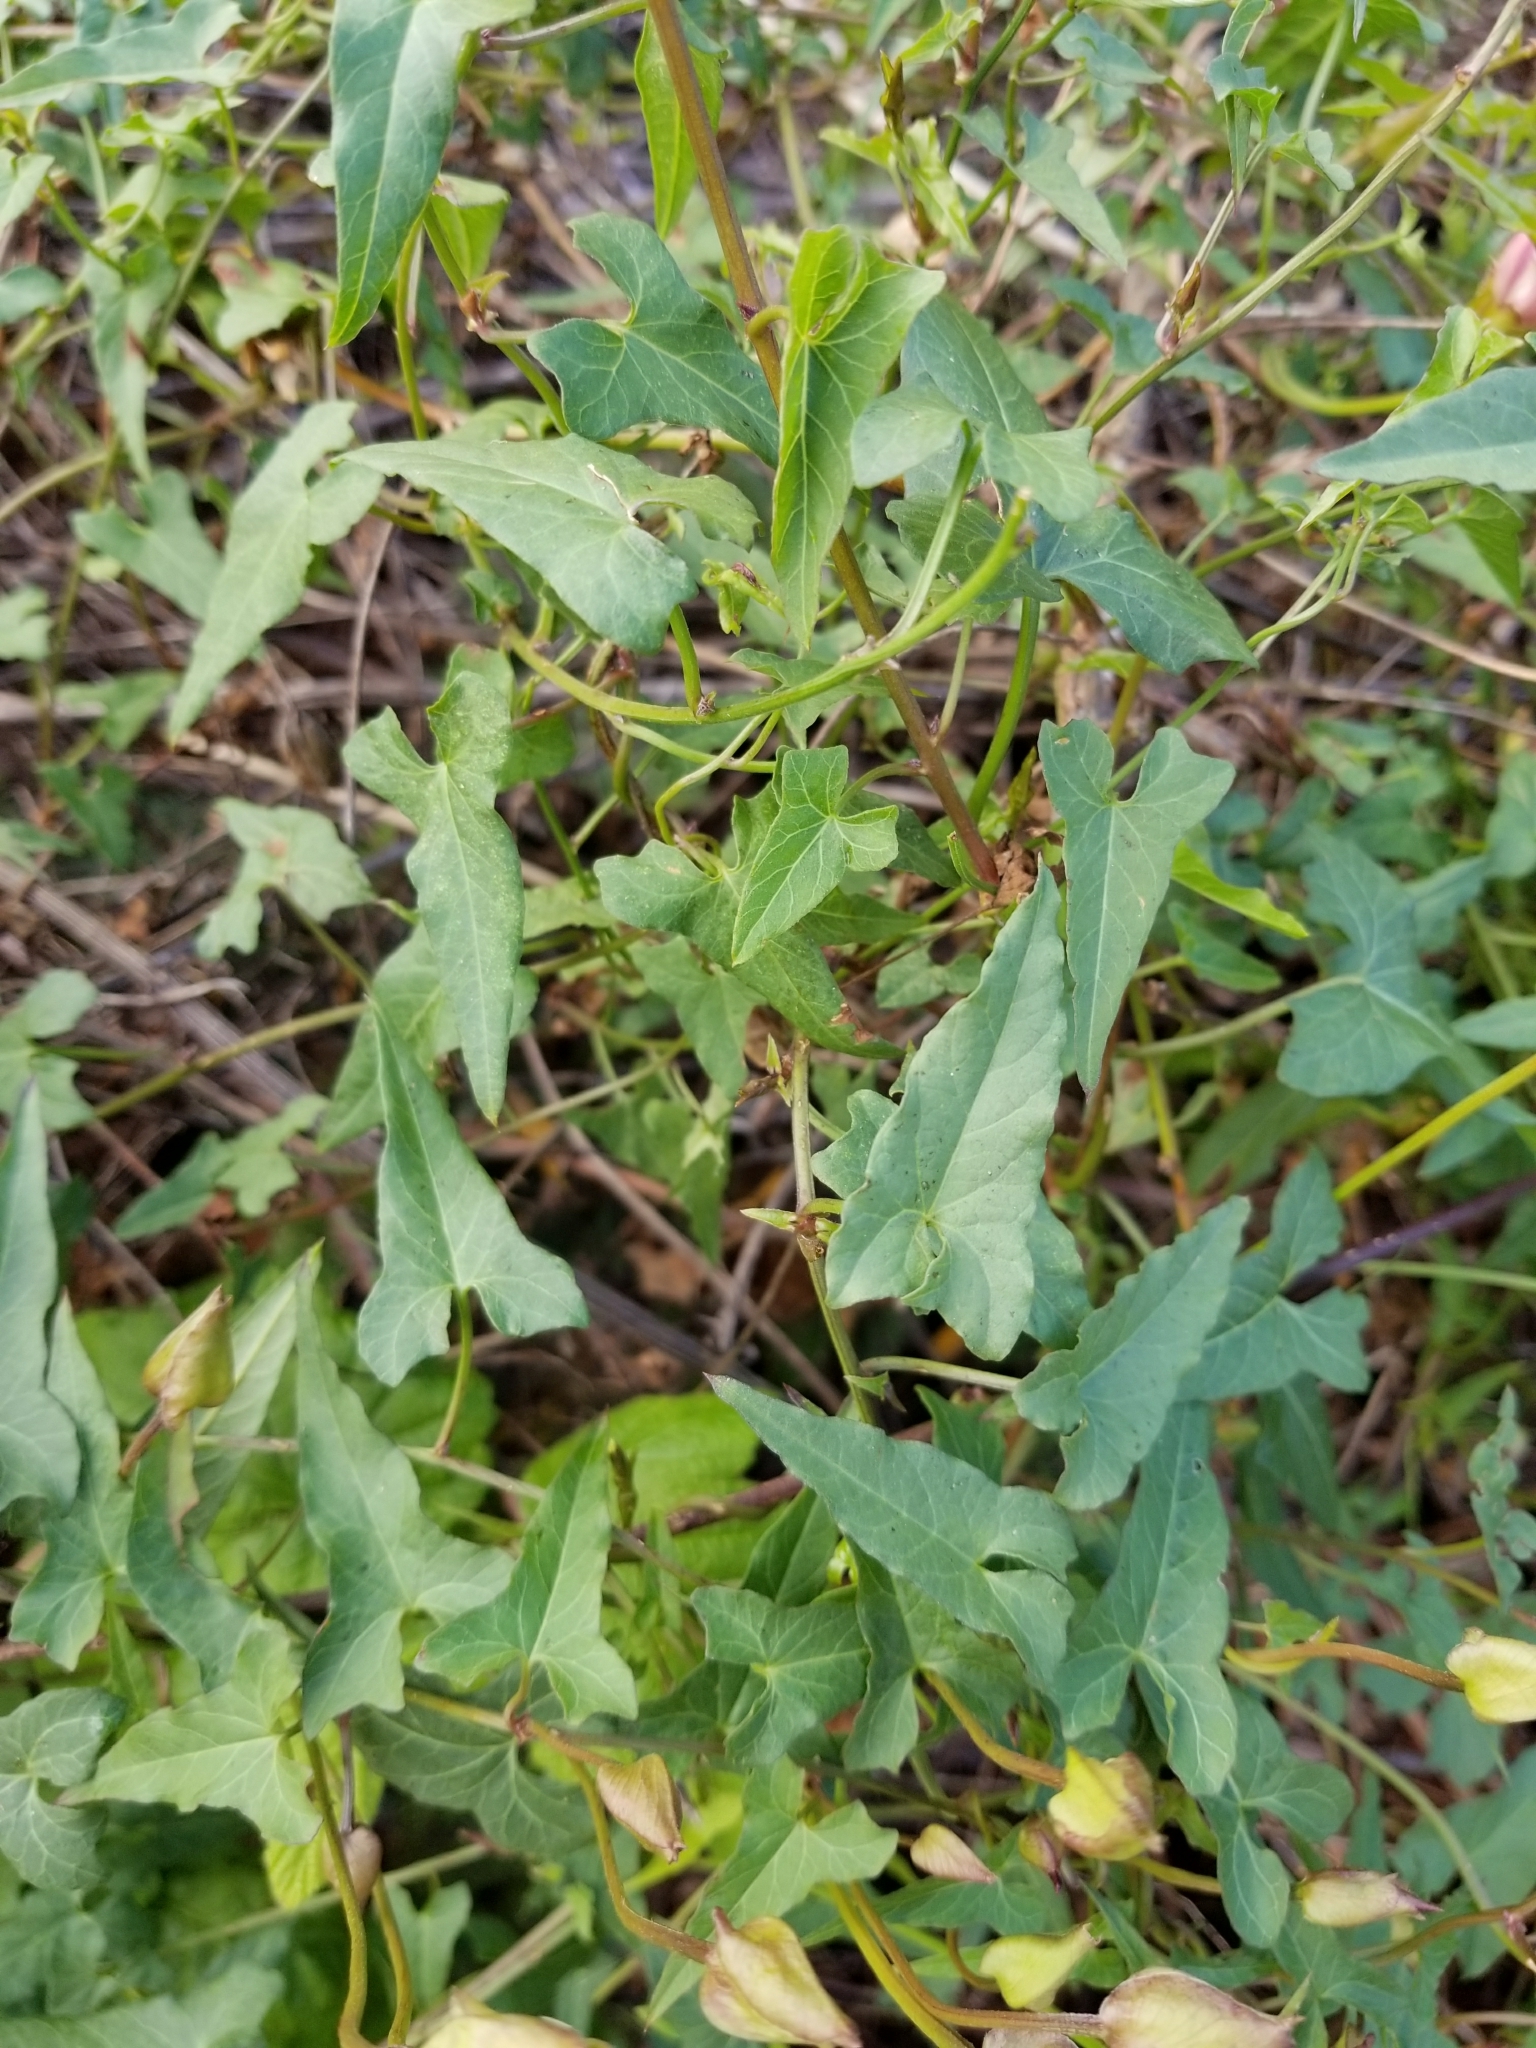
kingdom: Plantae
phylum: Tracheophyta
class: Magnoliopsida
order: Solanales
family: Convolvulaceae
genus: Calystegia
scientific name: Calystegia macrostegia
